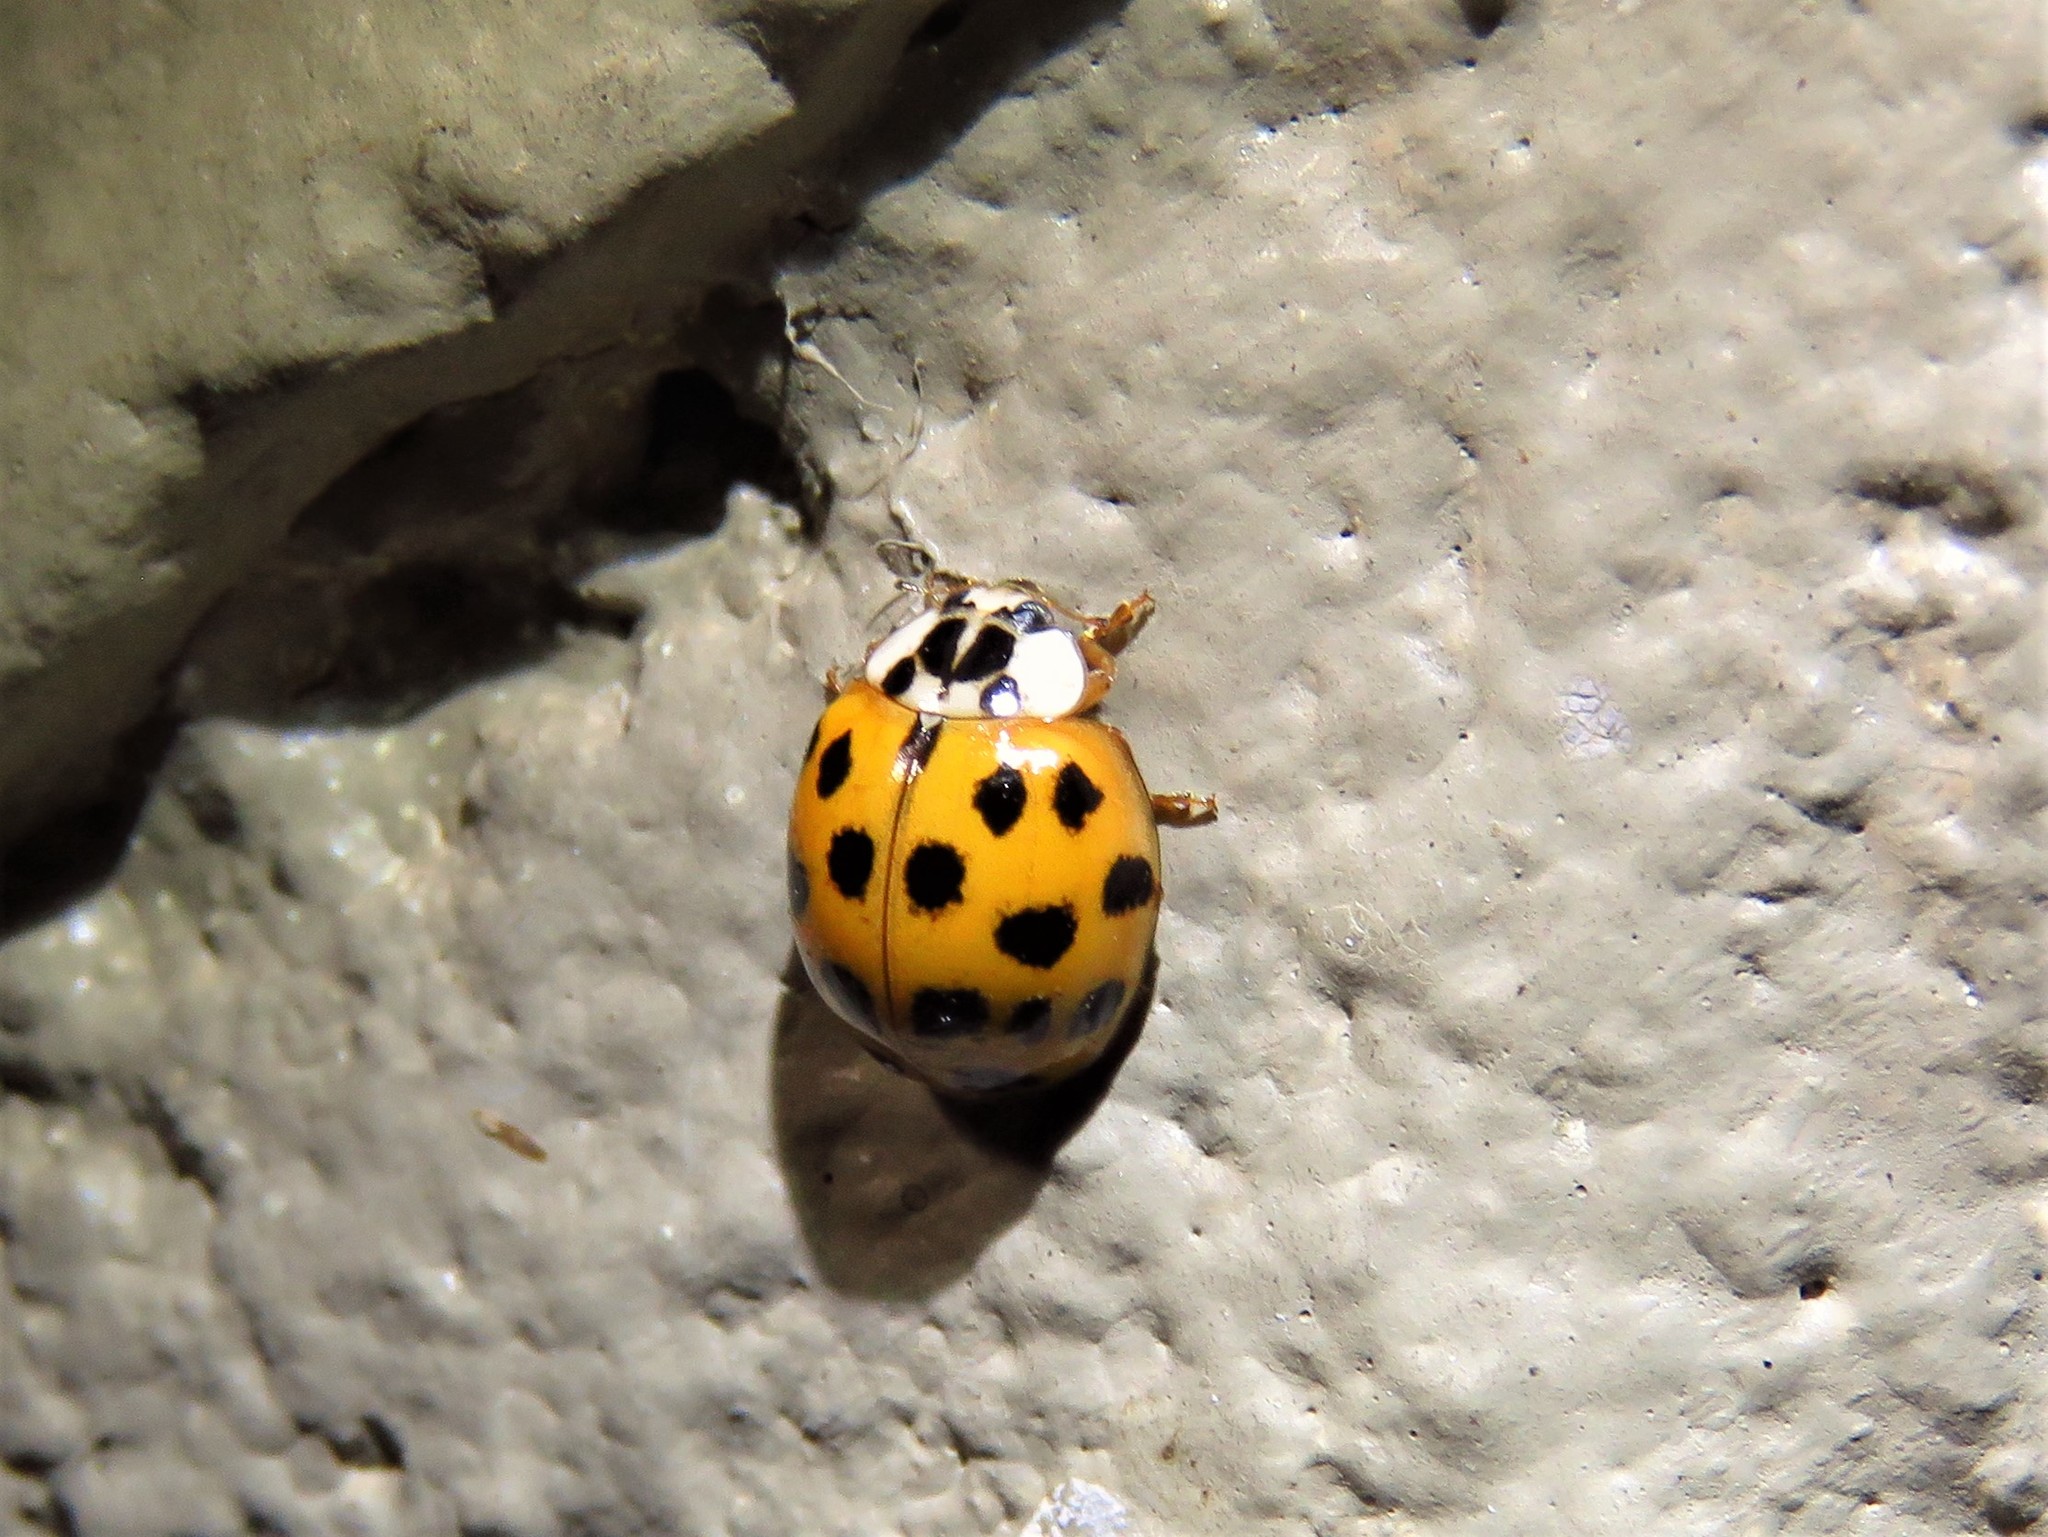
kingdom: Animalia
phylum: Arthropoda
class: Insecta
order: Coleoptera
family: Coccinellidae
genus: Harmonia
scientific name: Harmonia axyridis
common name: Harlequin ladybird
